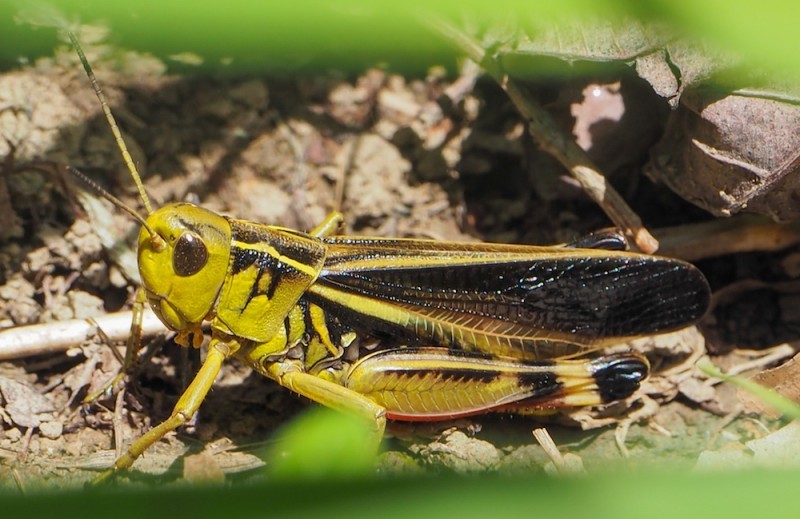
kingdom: Animalia
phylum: Arthropoda
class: Insecta
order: Orthoptera
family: Acrididae
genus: Arcyptera
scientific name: Arcyptera fusca
